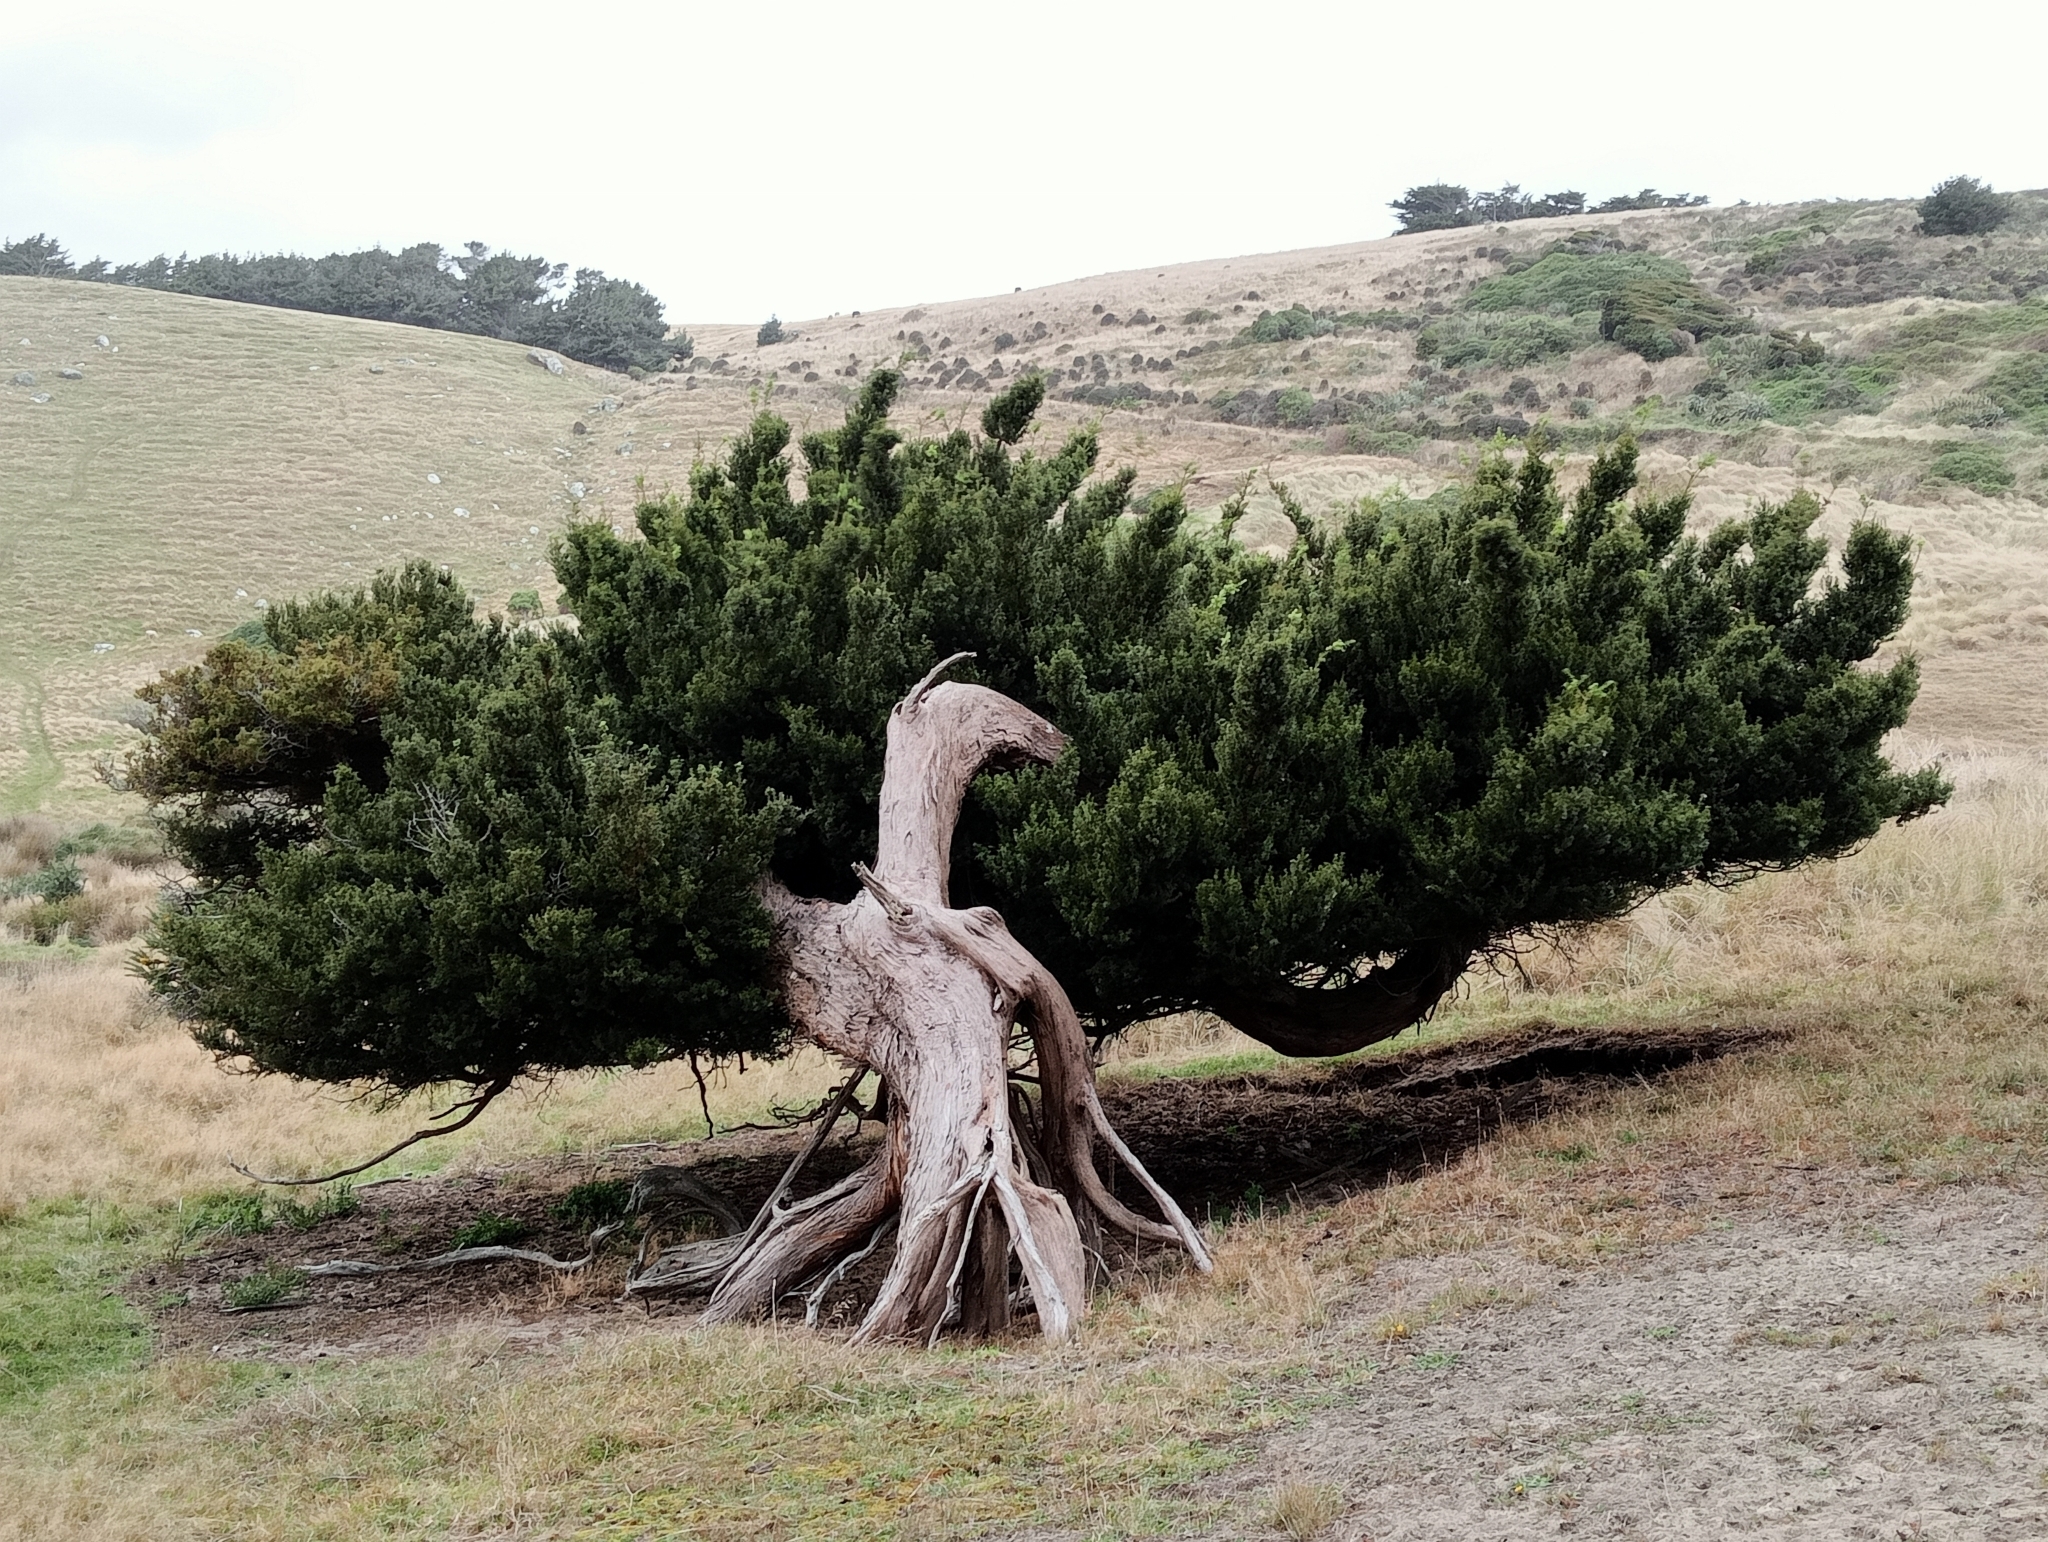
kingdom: Plantae
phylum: Tracheophyta
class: Pinopsida
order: Pinales
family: Podocarpaceae
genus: Podocarpus
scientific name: Podocarpus laetus
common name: Hall's totara
